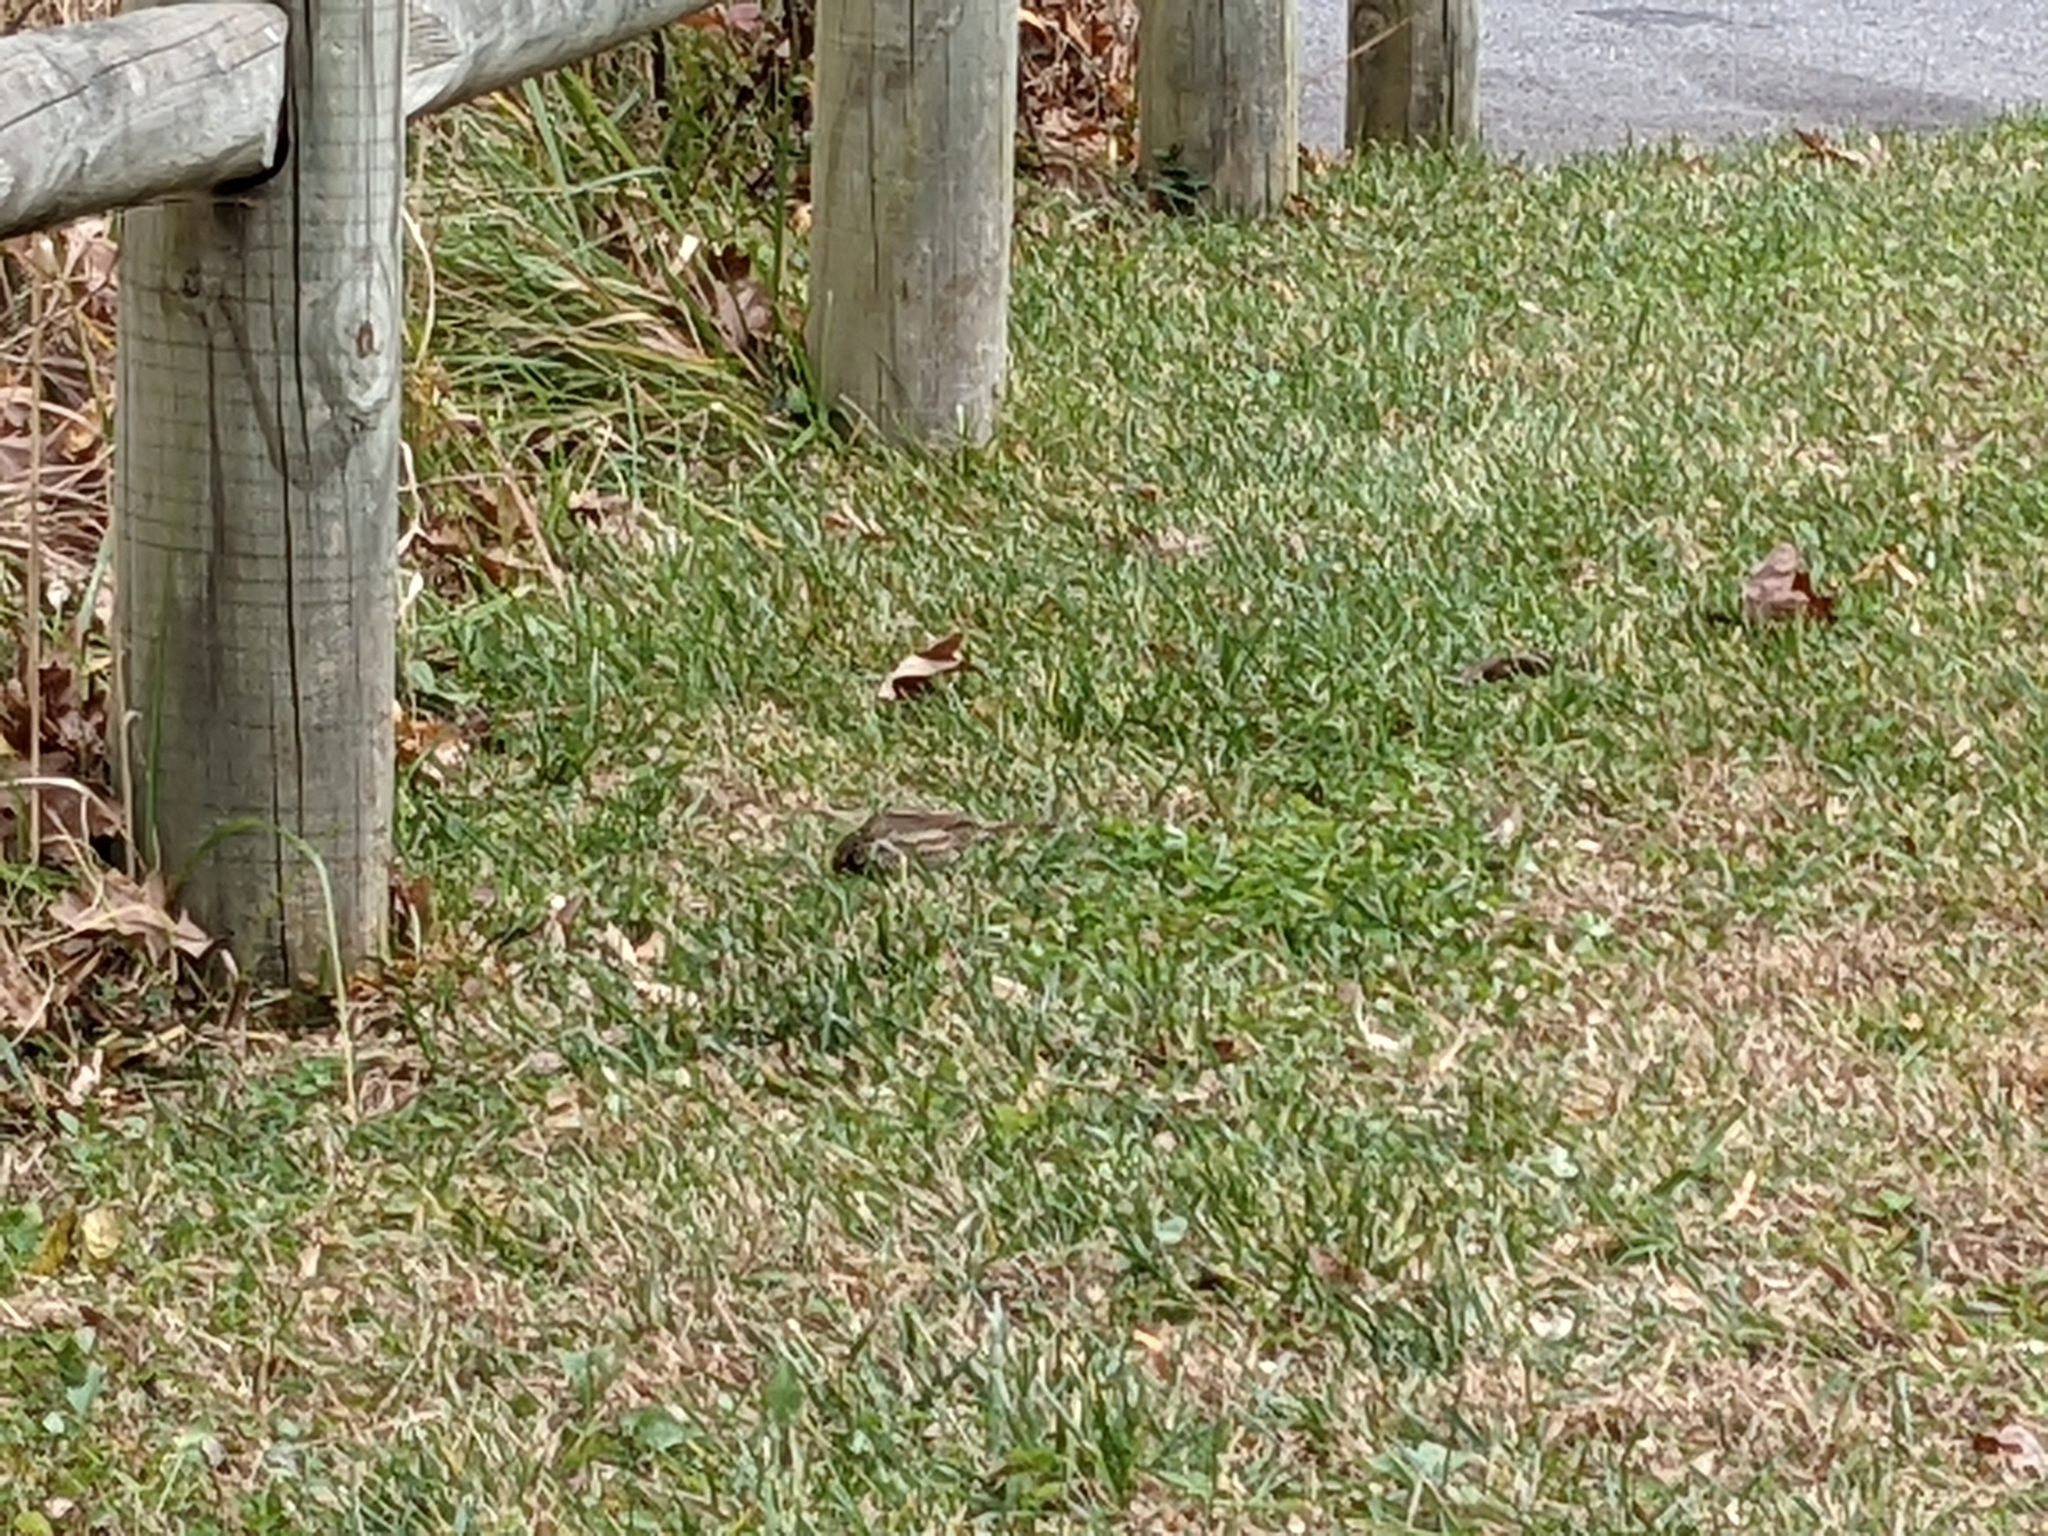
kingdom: Animalia
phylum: Chordata
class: Aves
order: Passeriformes
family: Passerellidae
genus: Melospiza
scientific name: Melospiza melodia
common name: Song sparrow
